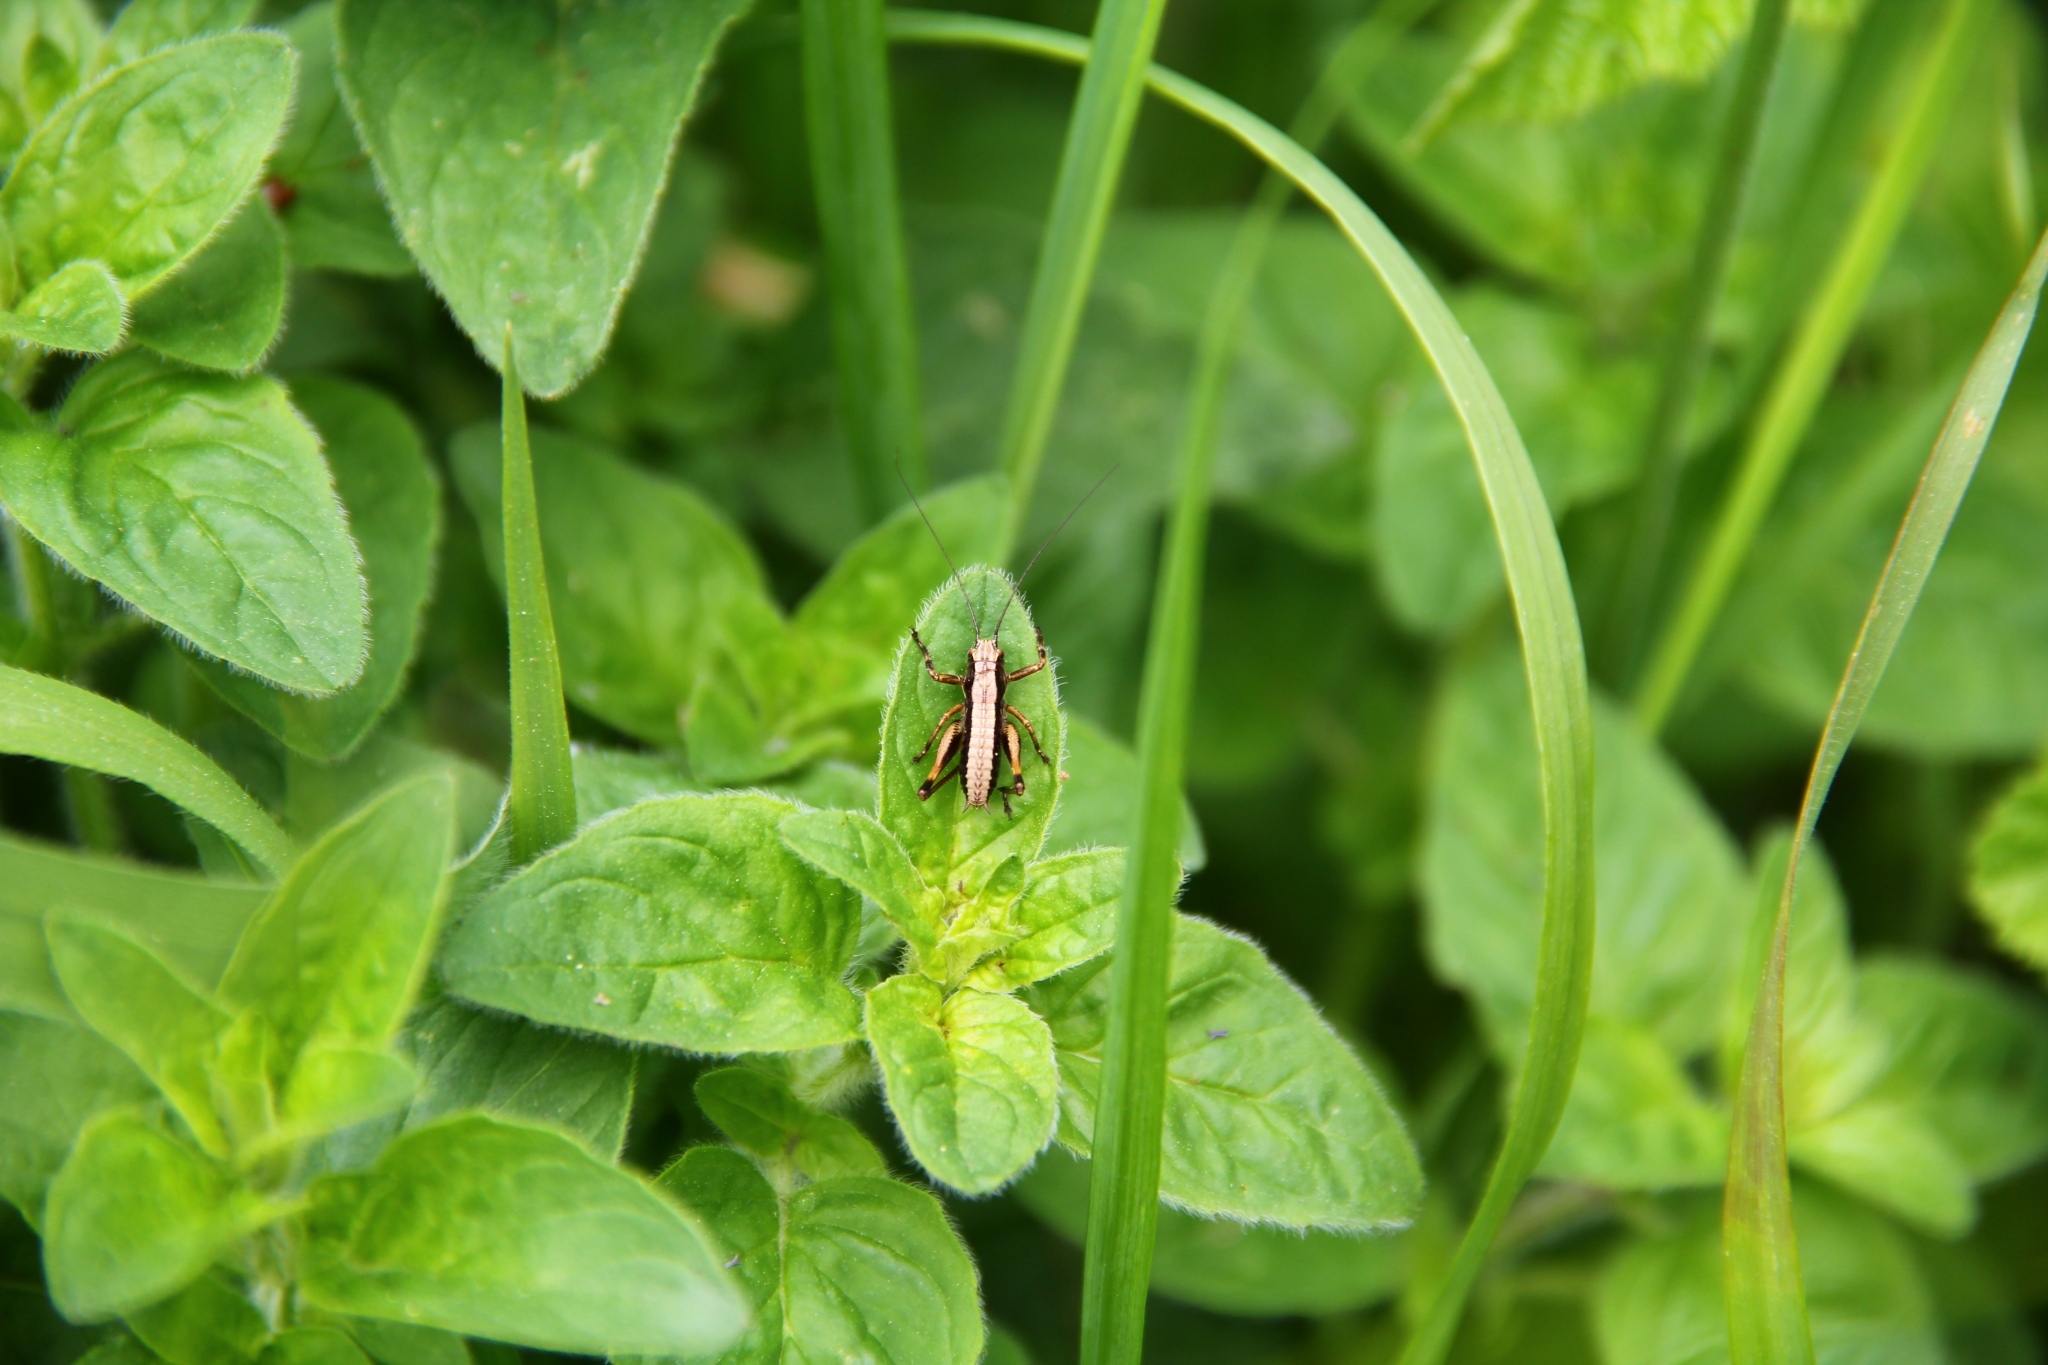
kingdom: Animalia
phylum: Arthropoda
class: Insecta
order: Orthoptera
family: Tettigoniidae
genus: Pholidoptera
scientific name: Pholidoptera griseoaptera
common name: Dark bush-cricket
